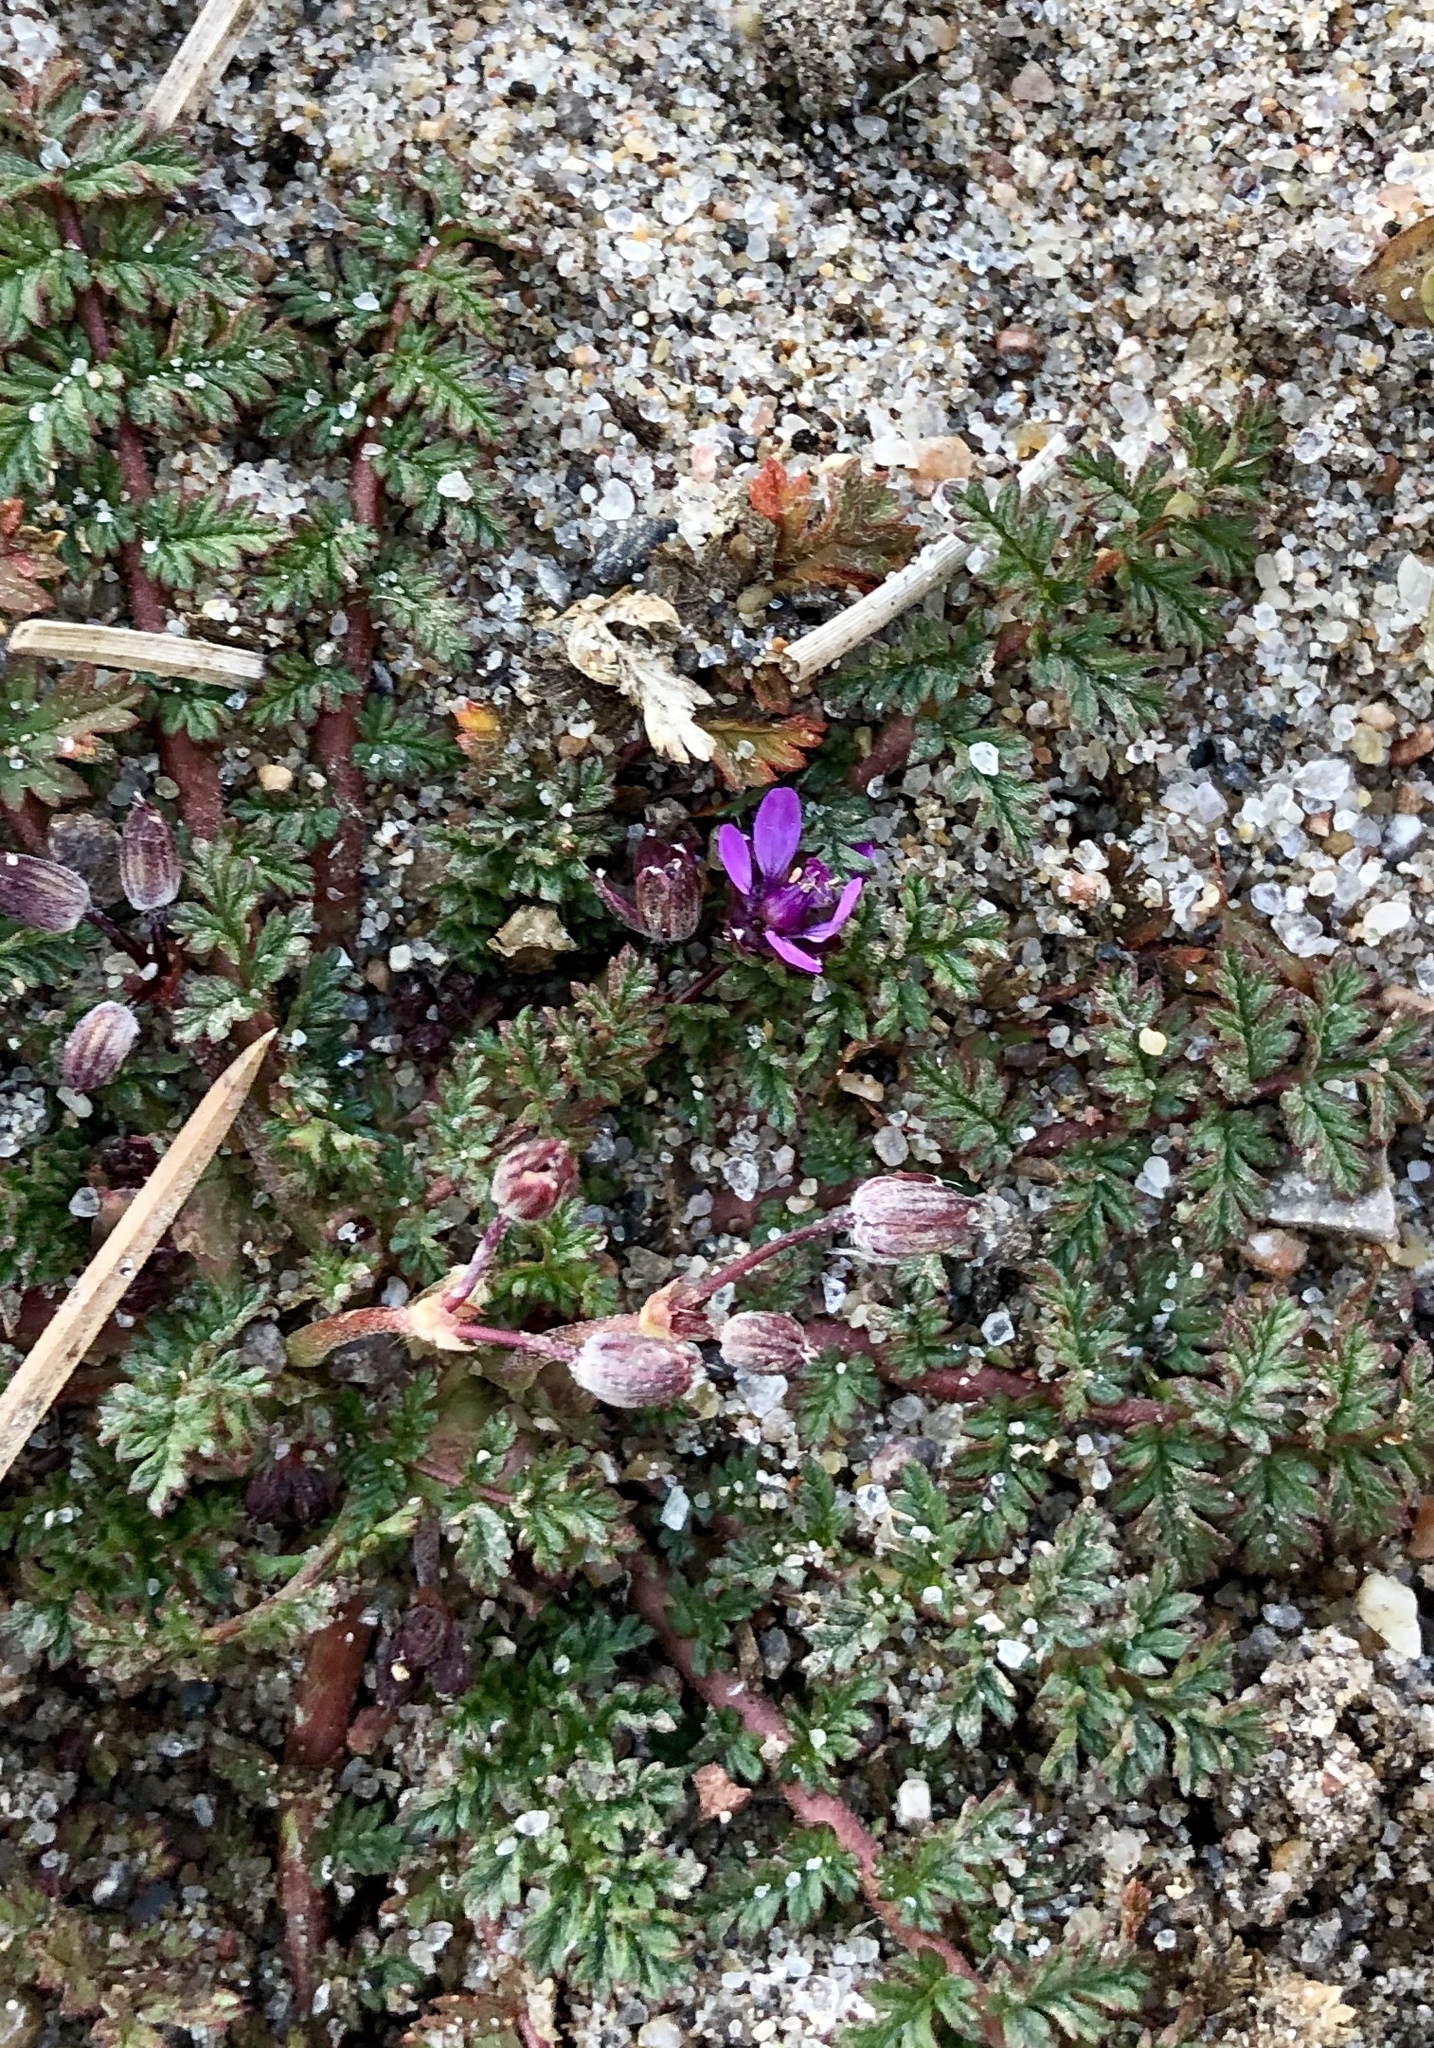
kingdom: Plantae
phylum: Tracheophyta
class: Magnoliopsida
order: Geraniales
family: Geraniaceae
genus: Erodium
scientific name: Erodium cicutarium
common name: Common stork's-bill
